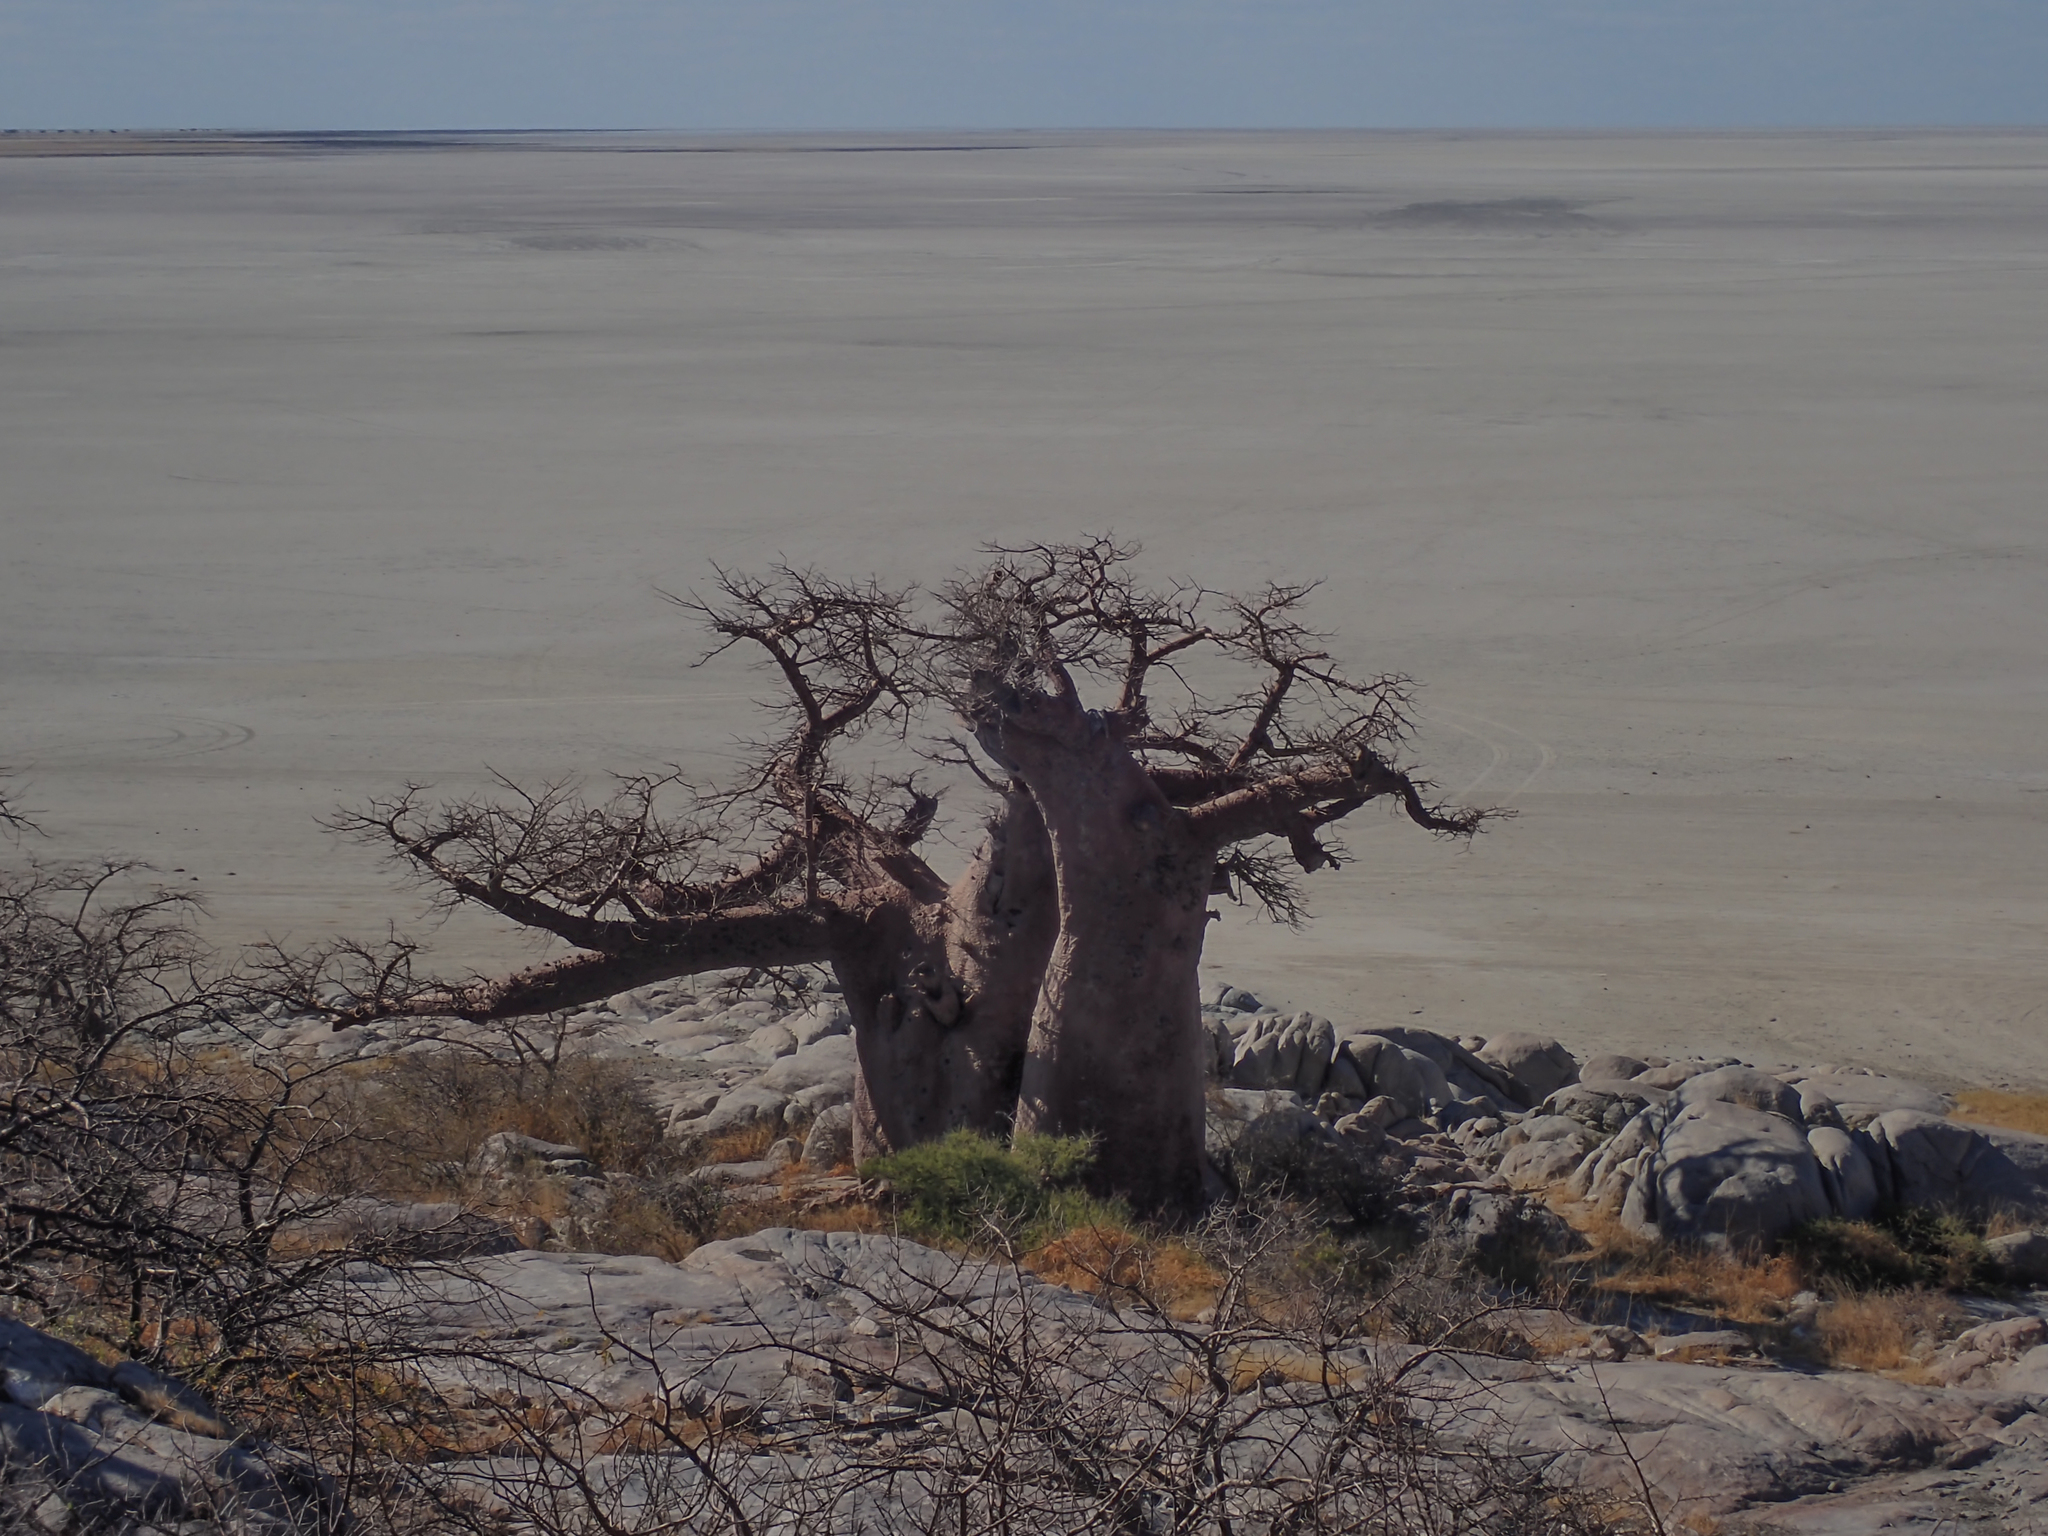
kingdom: Plantae
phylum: Tracheophyta
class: Magnoliopsida
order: Malvales
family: Malvaceae
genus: Adansonia
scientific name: Adansonia digitata
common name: Dead-rat-tree
